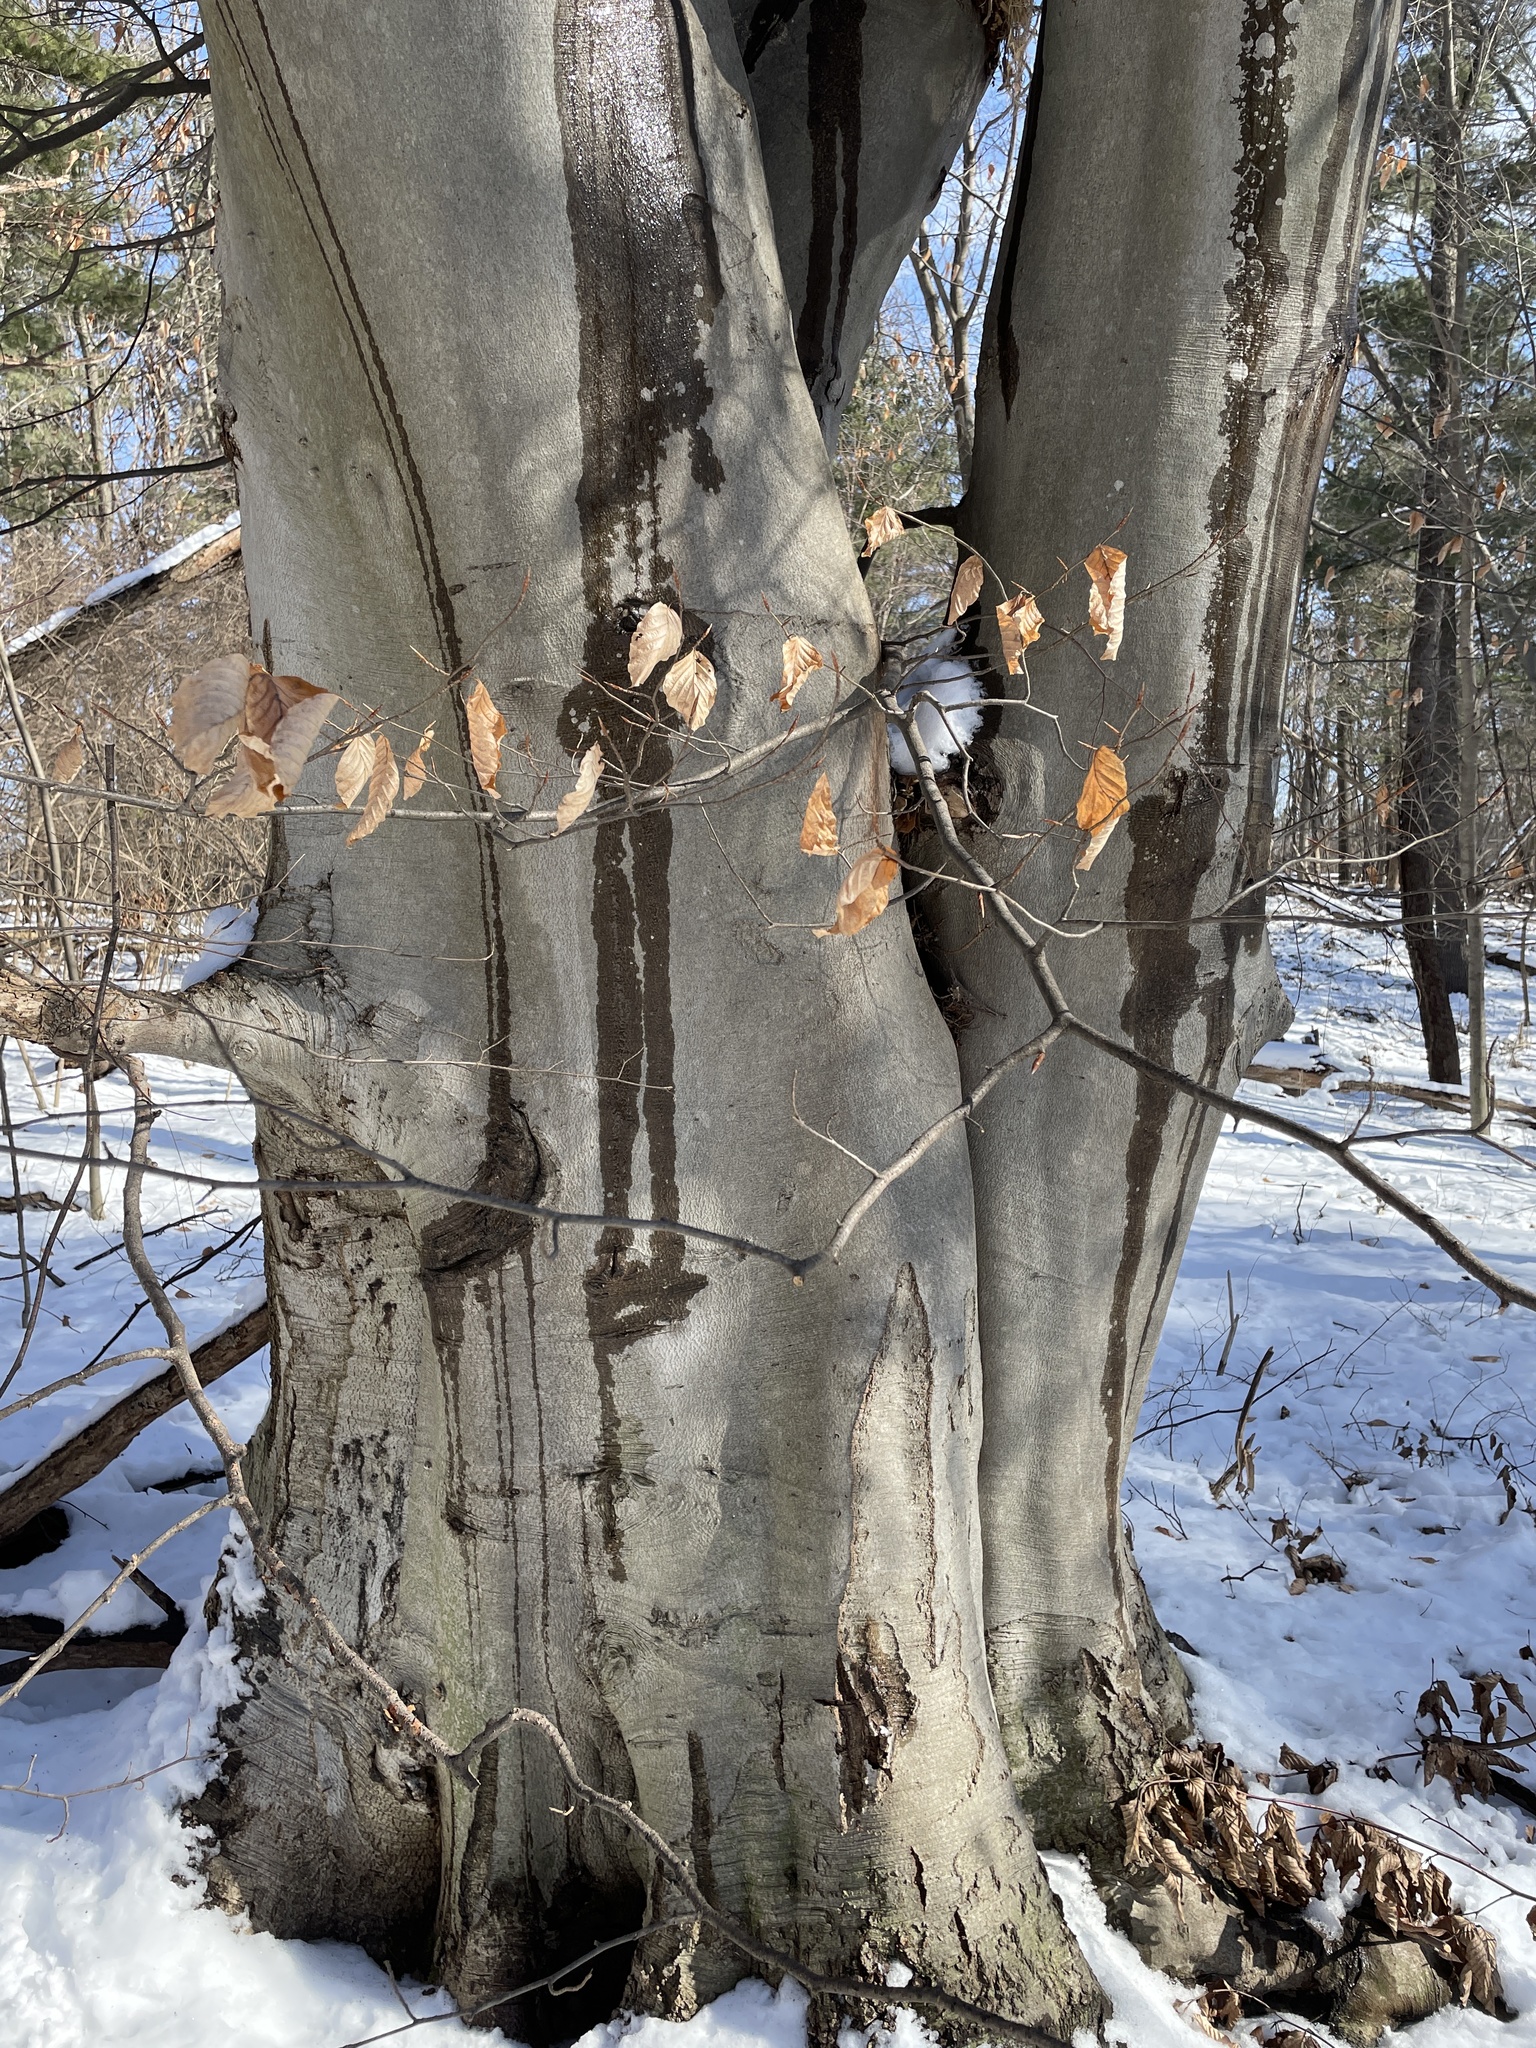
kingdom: Plantae
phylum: Tracheophyta
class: Magnoliopsida
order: Fagales
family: Fagaceae
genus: Fagus
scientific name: Fagus grandifolia
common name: American beech
